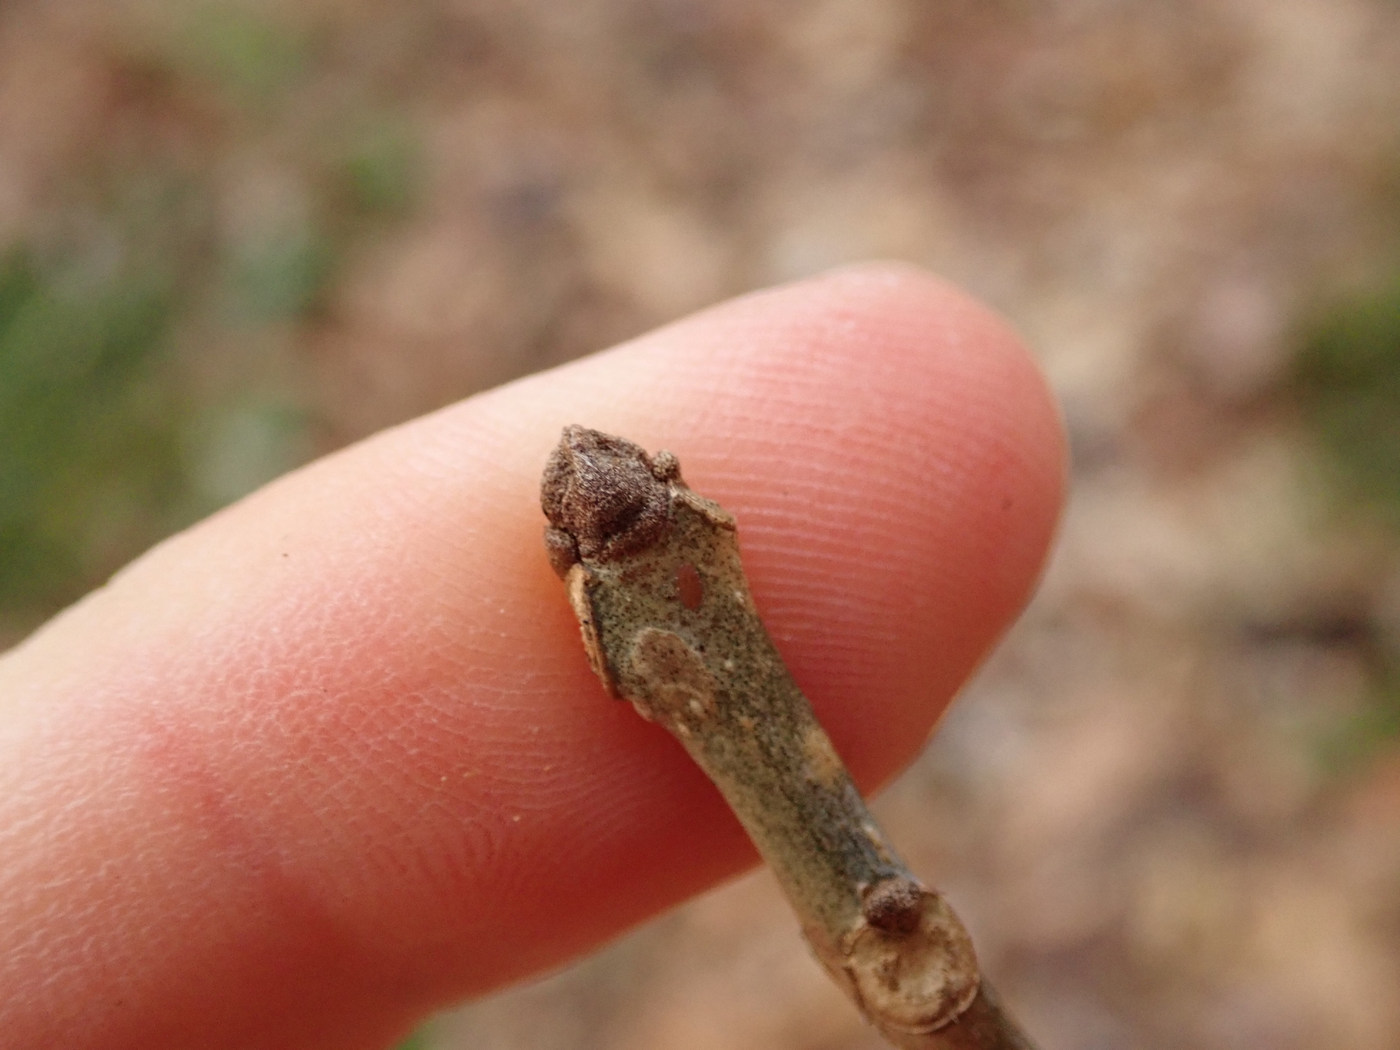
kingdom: Plantae
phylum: Tracheophyta
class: Magnoliopsida
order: Lamiales
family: Oleaceae
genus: Fraxinus
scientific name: Fraxinus americana
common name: White ash
